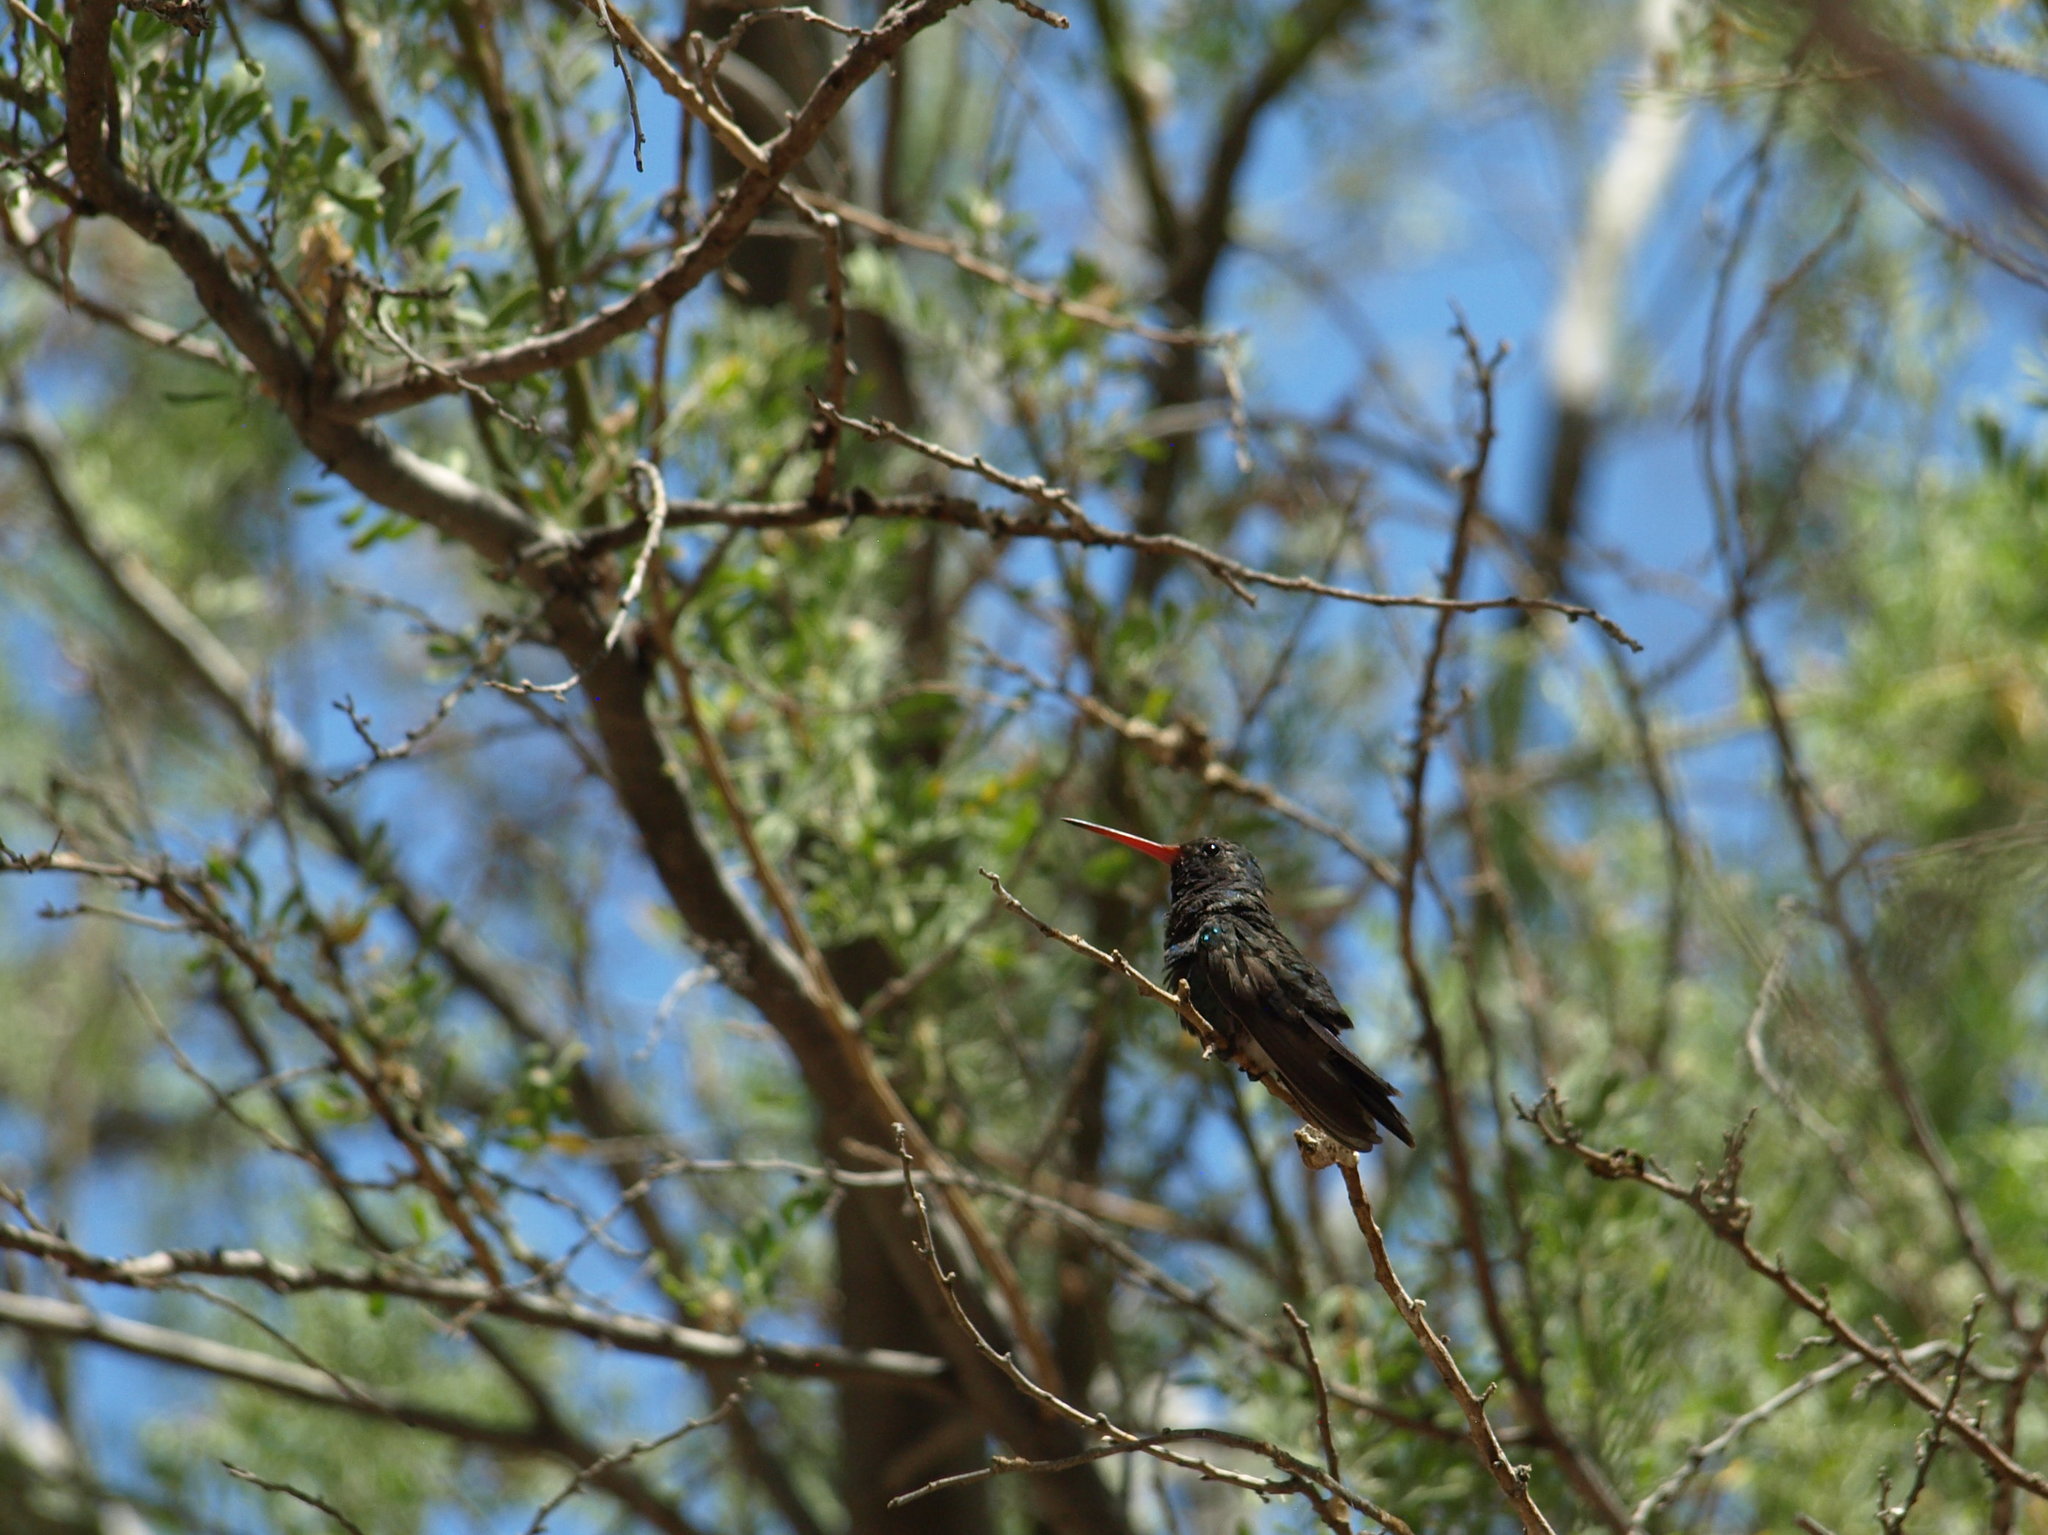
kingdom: Animalia
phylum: Chordata
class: Aves
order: Apodiformes
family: Trochilidae
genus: Cynanthus
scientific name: Cynanthus latirostris
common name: Broad-billed hummingbird
